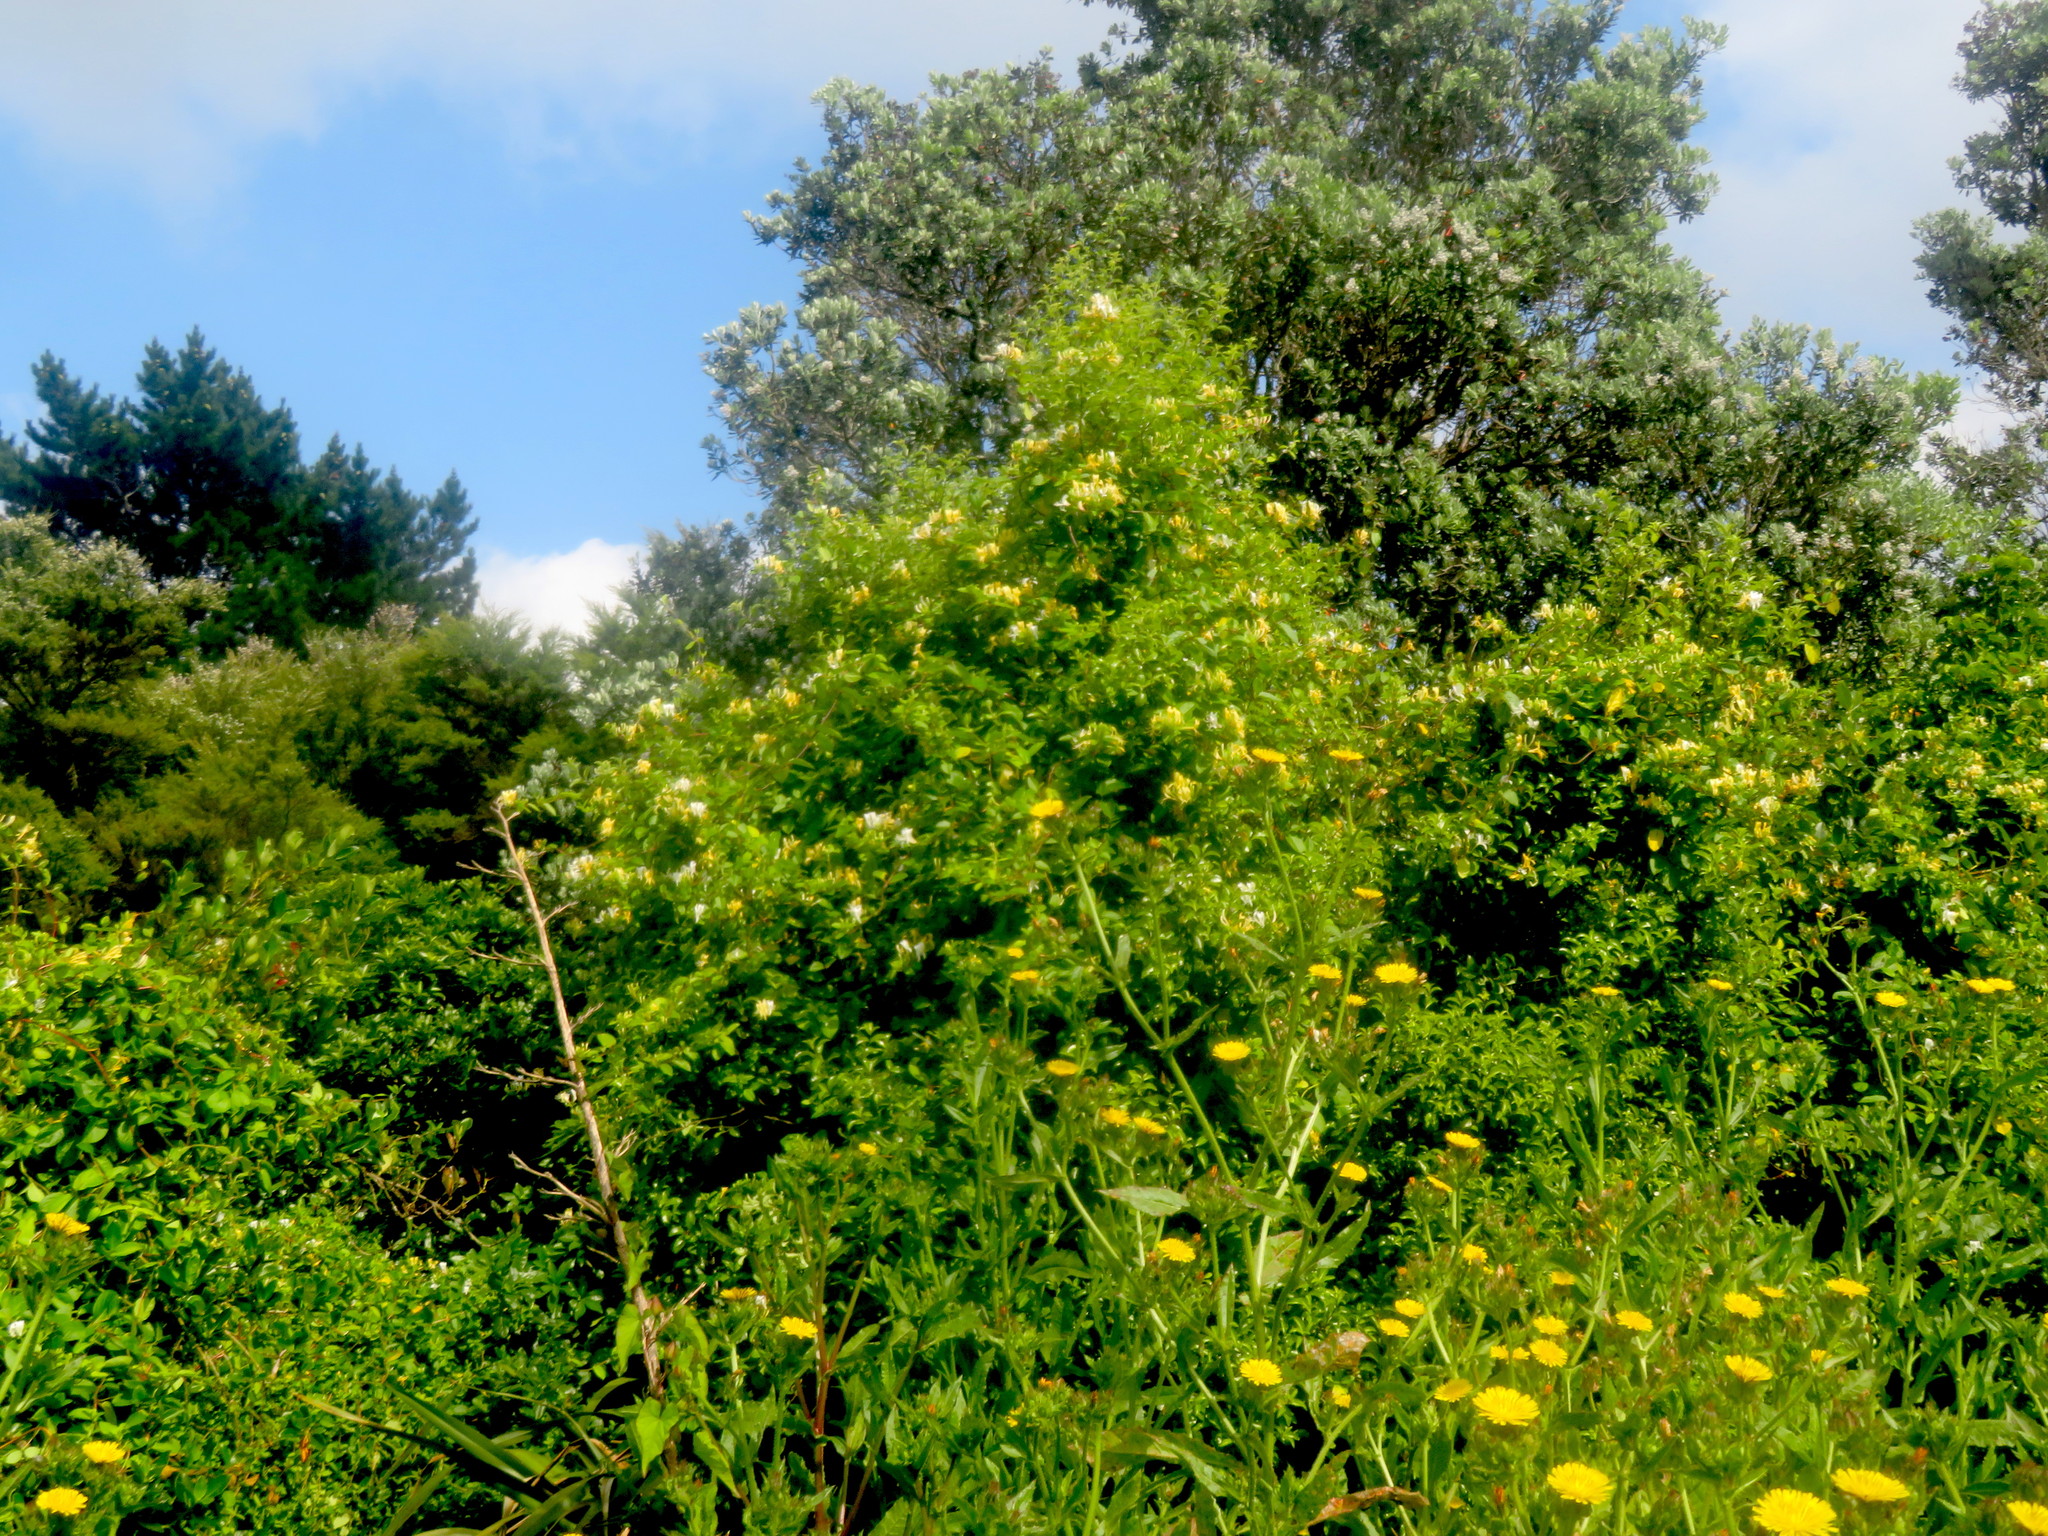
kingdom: Plantae
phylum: Tracheophyta
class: Magnoliopsida
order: Apiales
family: Pittosporaceae
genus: Pittosporum
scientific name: Pittosporum tenuifolium
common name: Kohuhu
